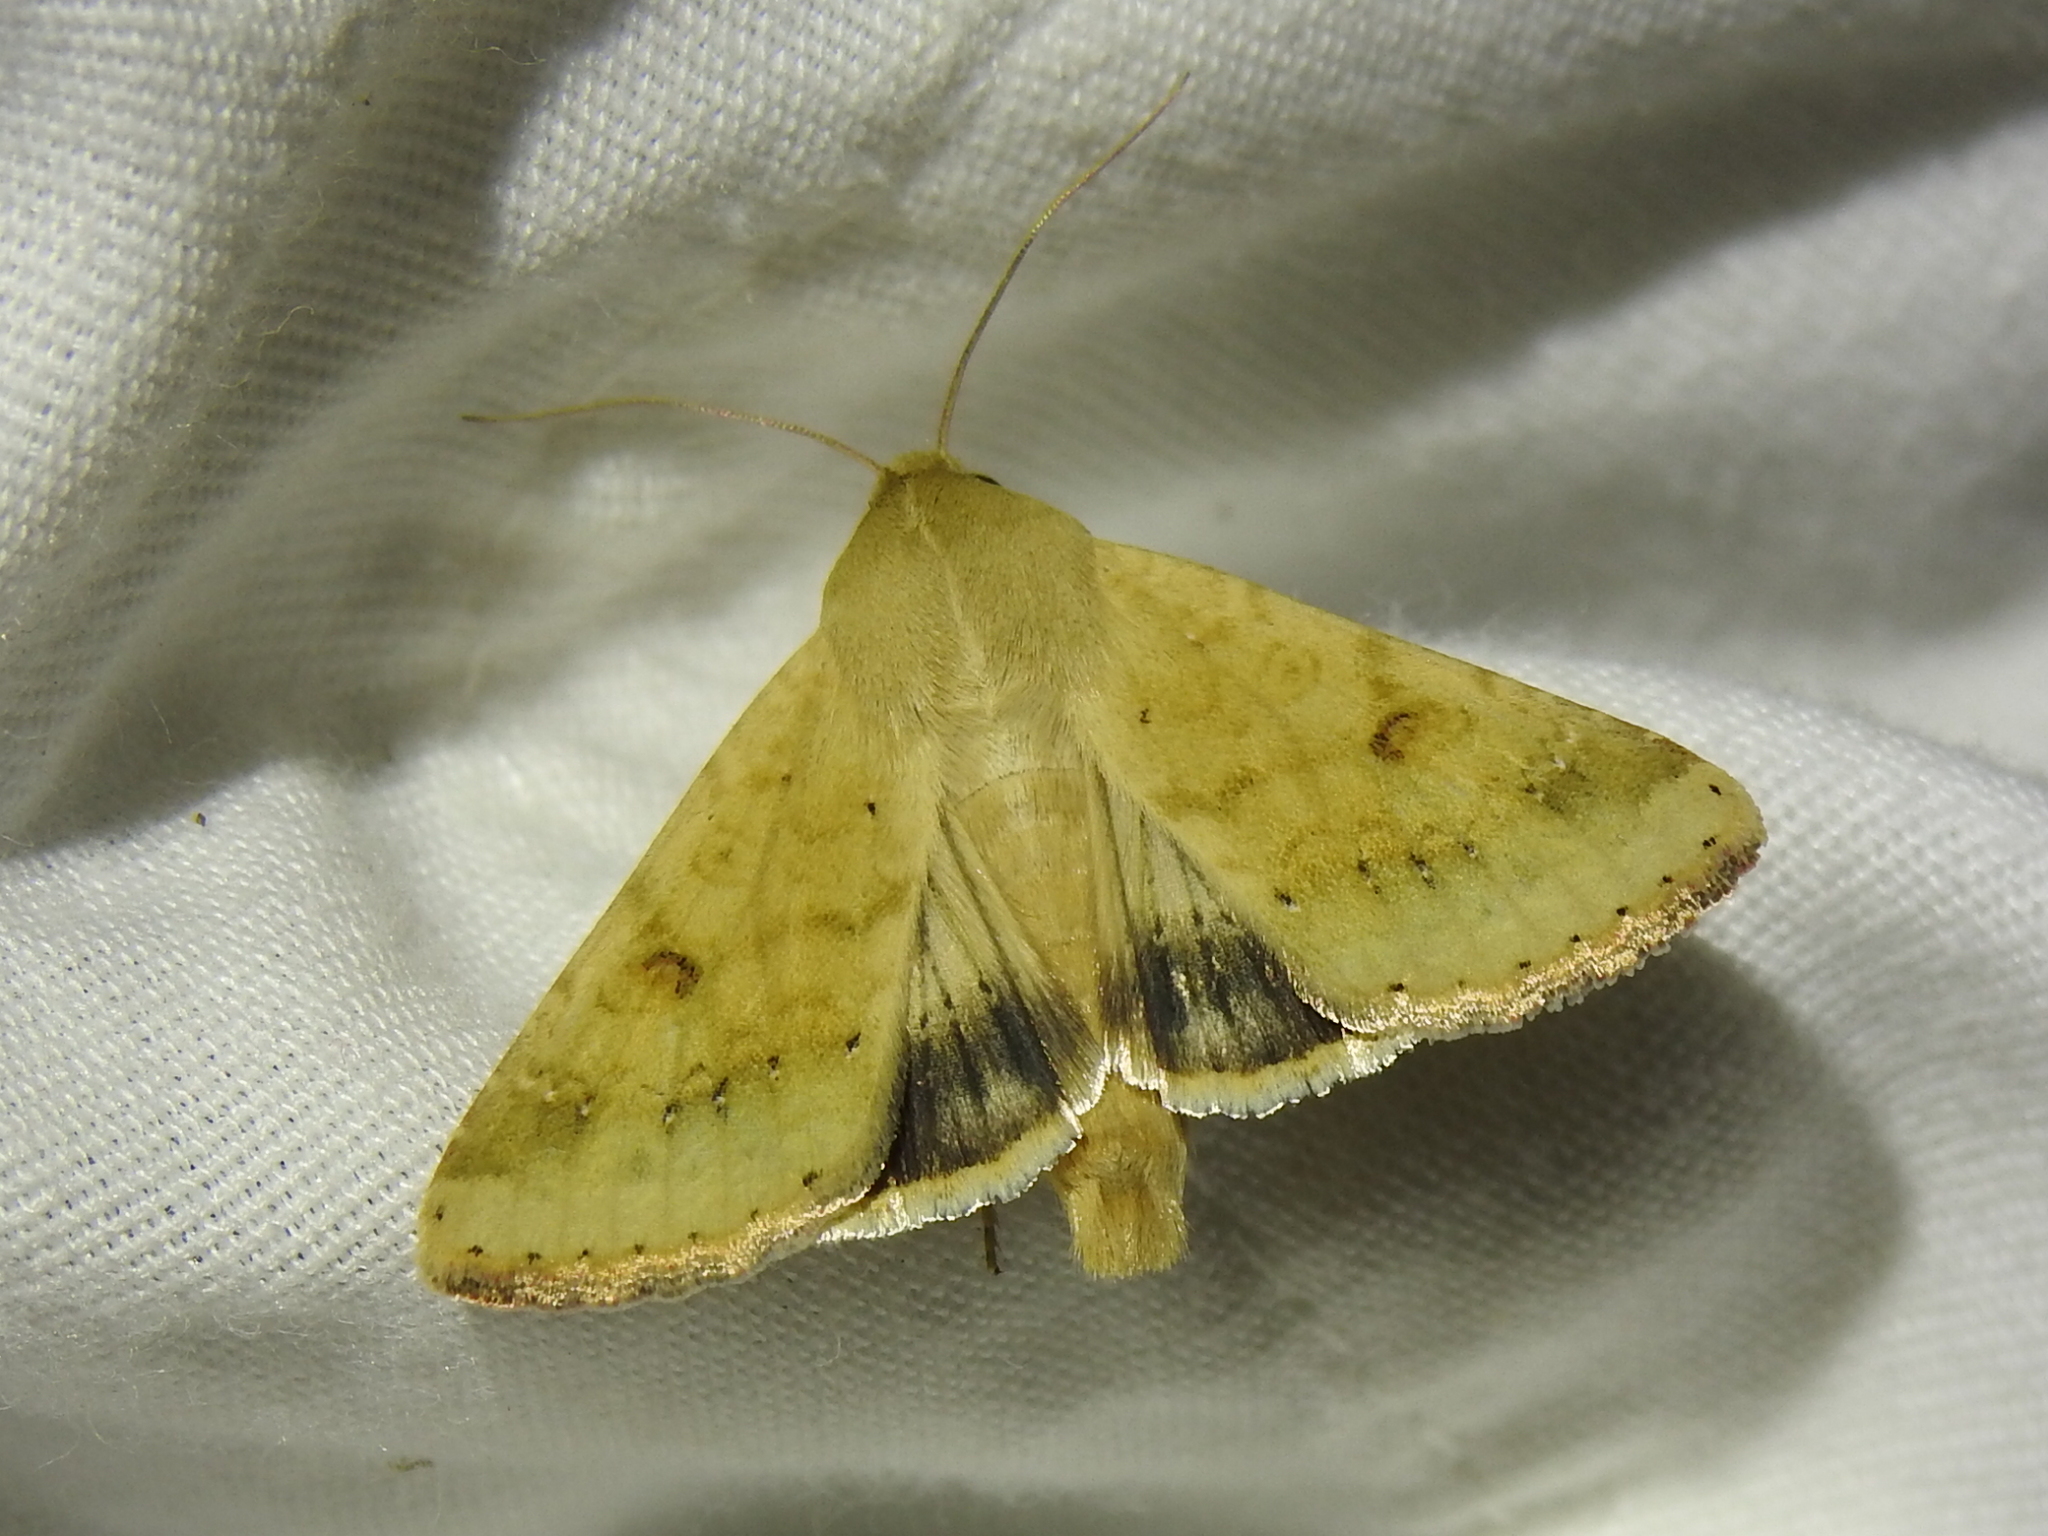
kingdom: Animalia
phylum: Arthropoda
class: Insecta
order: Lepidoptera
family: Noctuidae
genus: Helicoverpa
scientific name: Helicoverpa zea
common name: Bollworm
